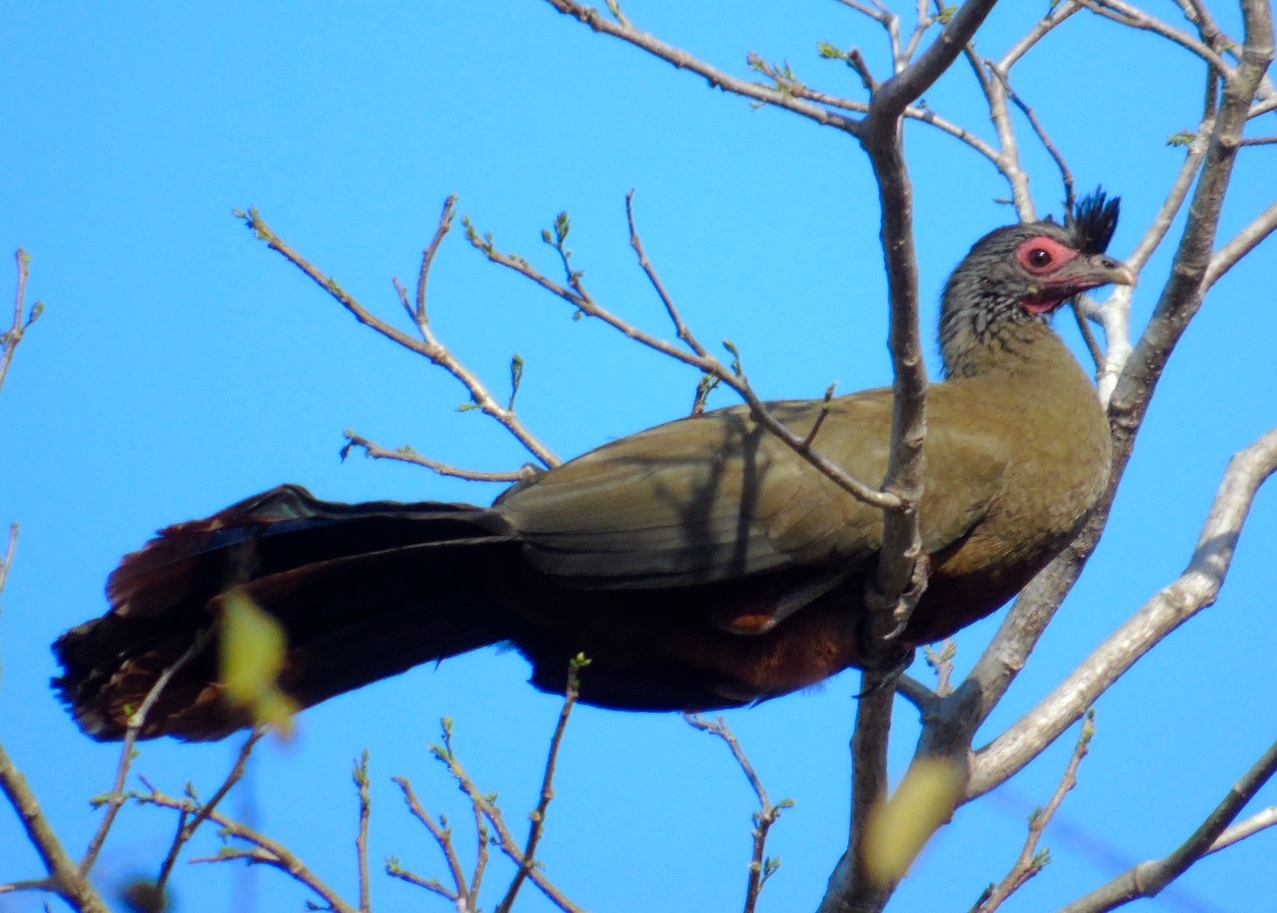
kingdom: Animalia
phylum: Chordata
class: Aves
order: Galliformes
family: Cracidae
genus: Ortalis
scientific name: Ortalis wagleri
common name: Rufous-bellied chachalaca
